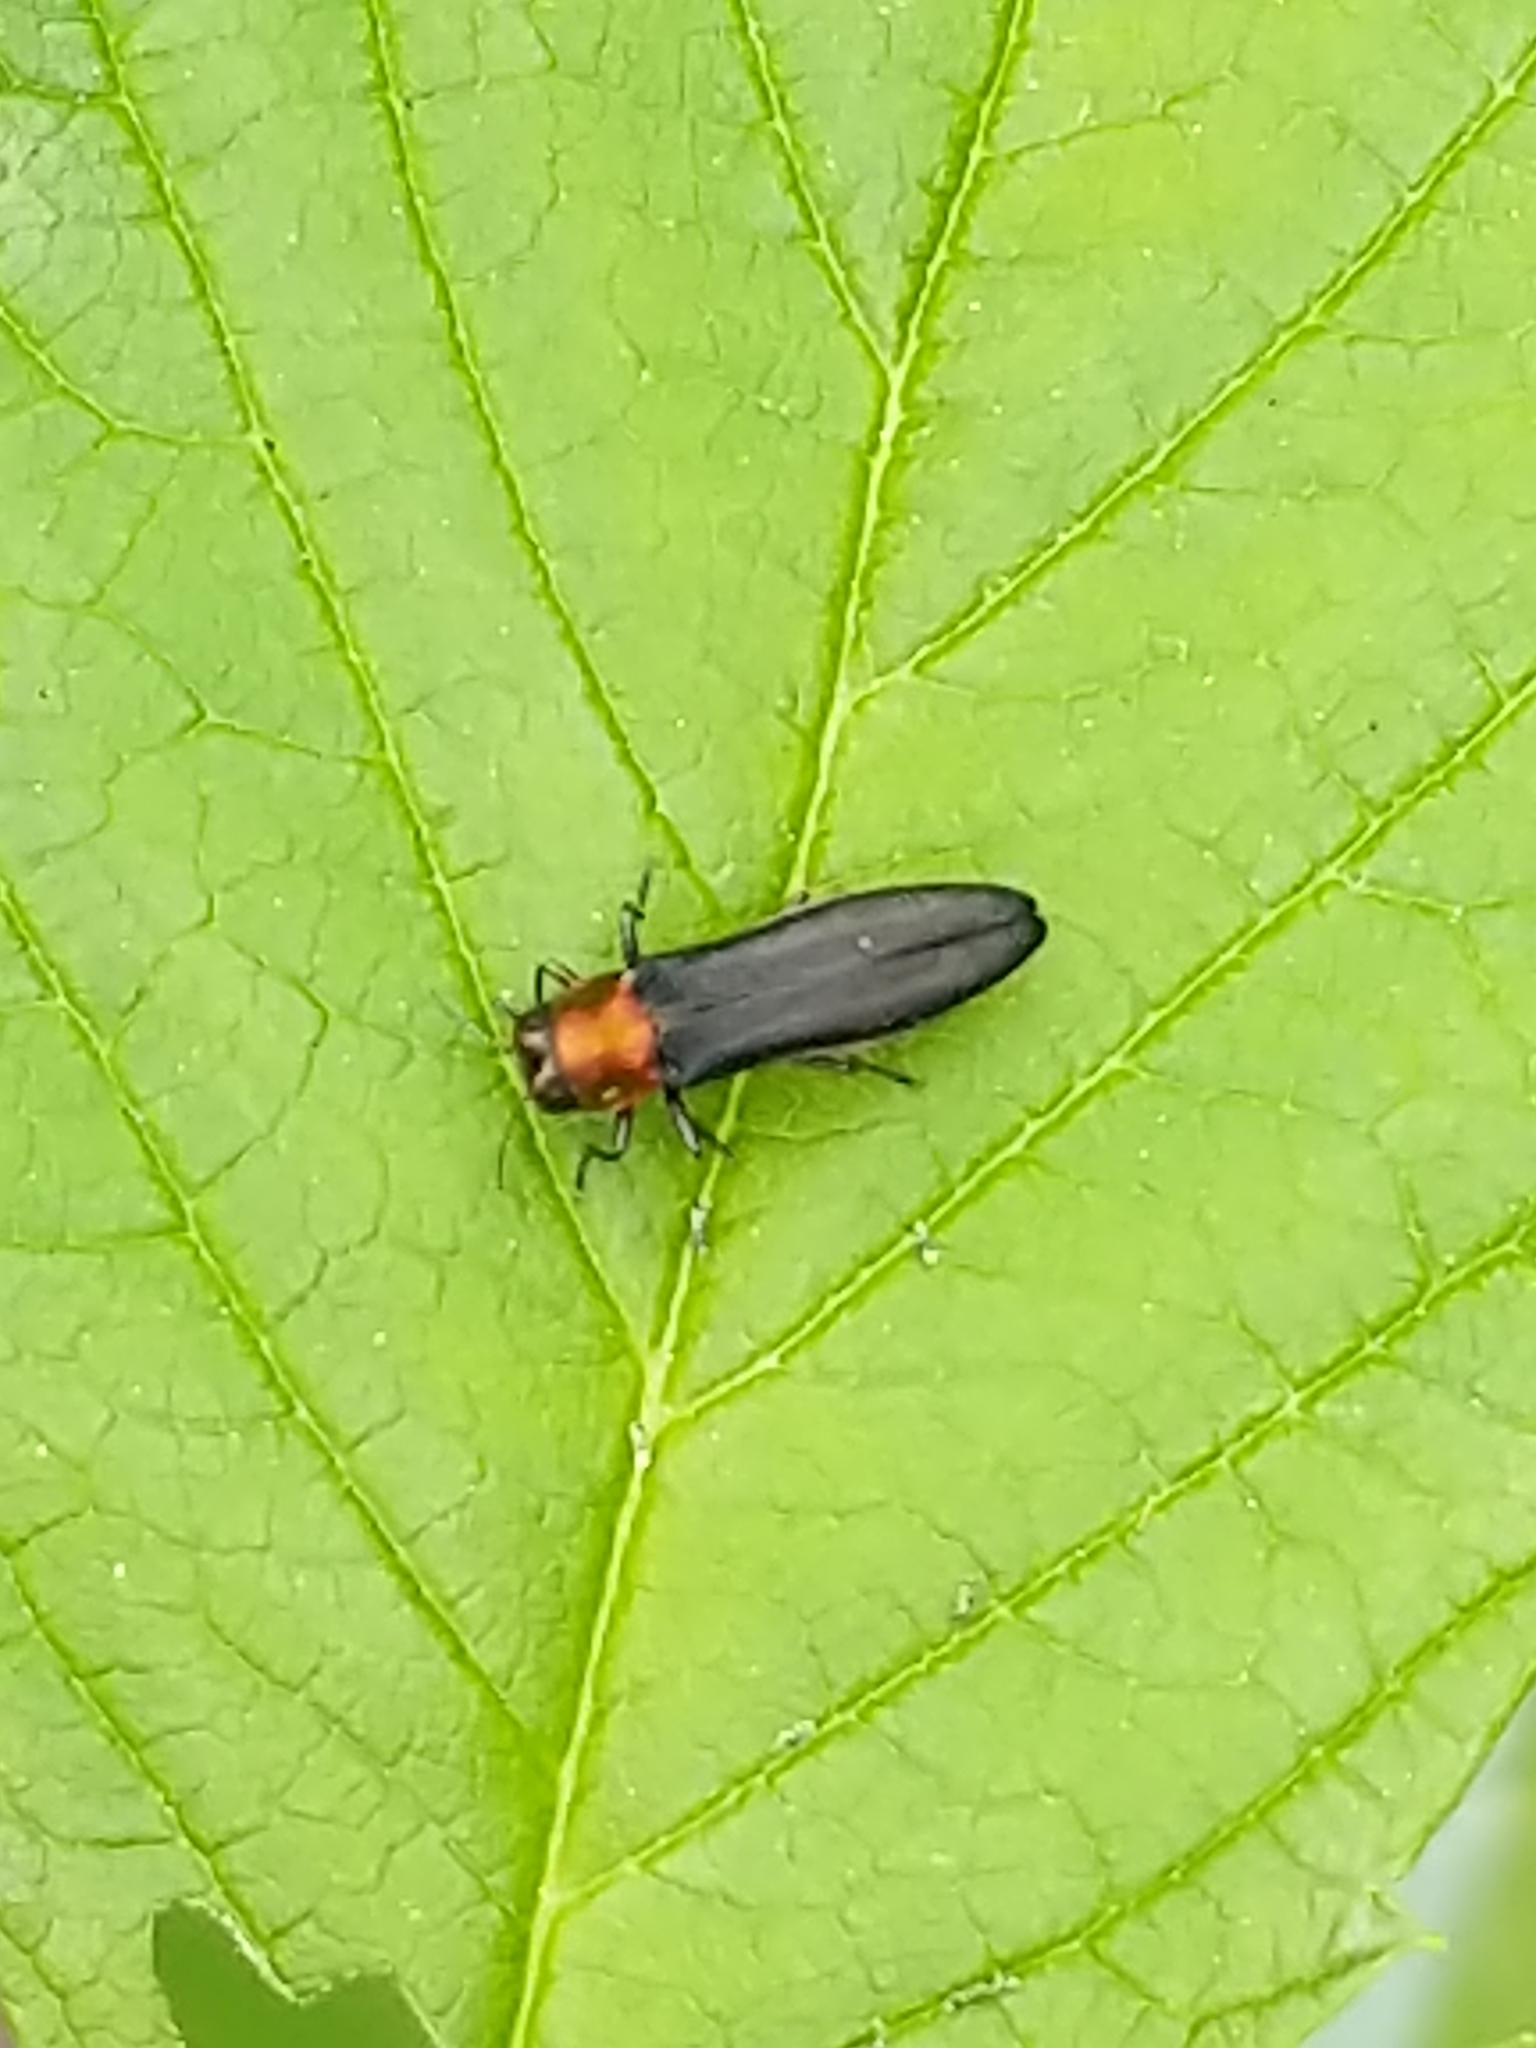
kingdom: Animalia
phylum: Arthropoda
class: Insecta
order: Coleoptera
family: Buprestidae
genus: Agrilus
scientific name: Agrilus ruficollis
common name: Red-necked cane borer beetle
